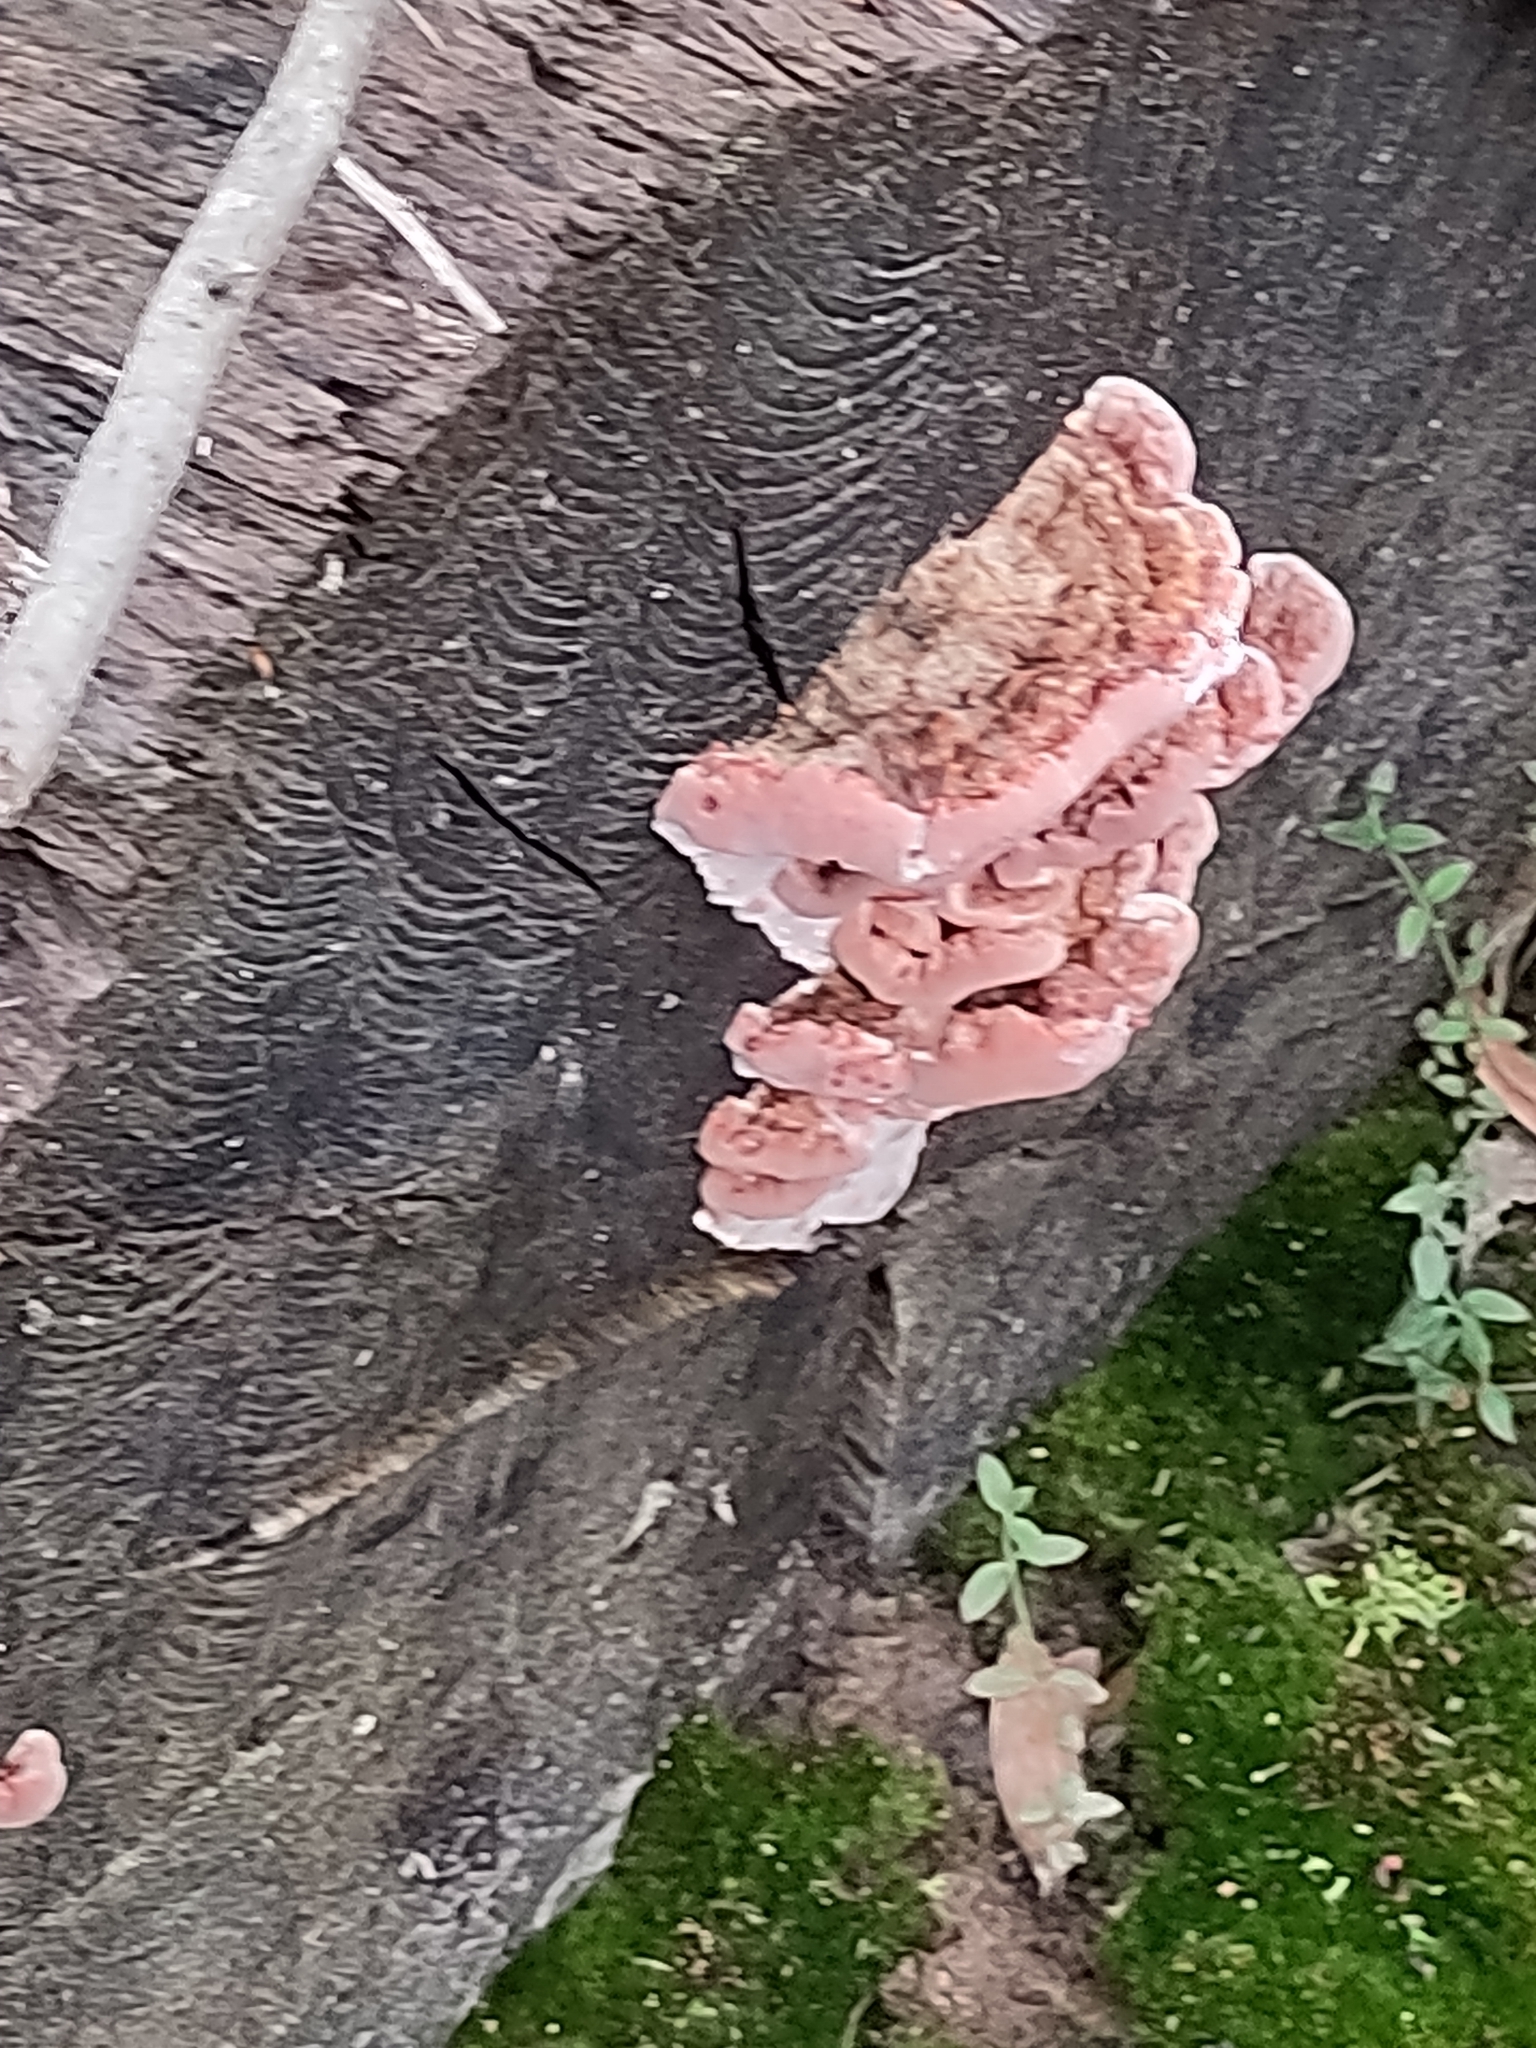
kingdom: Fungi
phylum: Basidiomycota
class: Agaricomycetes
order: Polyporales
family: Fomitopsidaceae
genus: Rhodofomitopsis
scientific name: Rhodofomitopsis lilacinogilva
